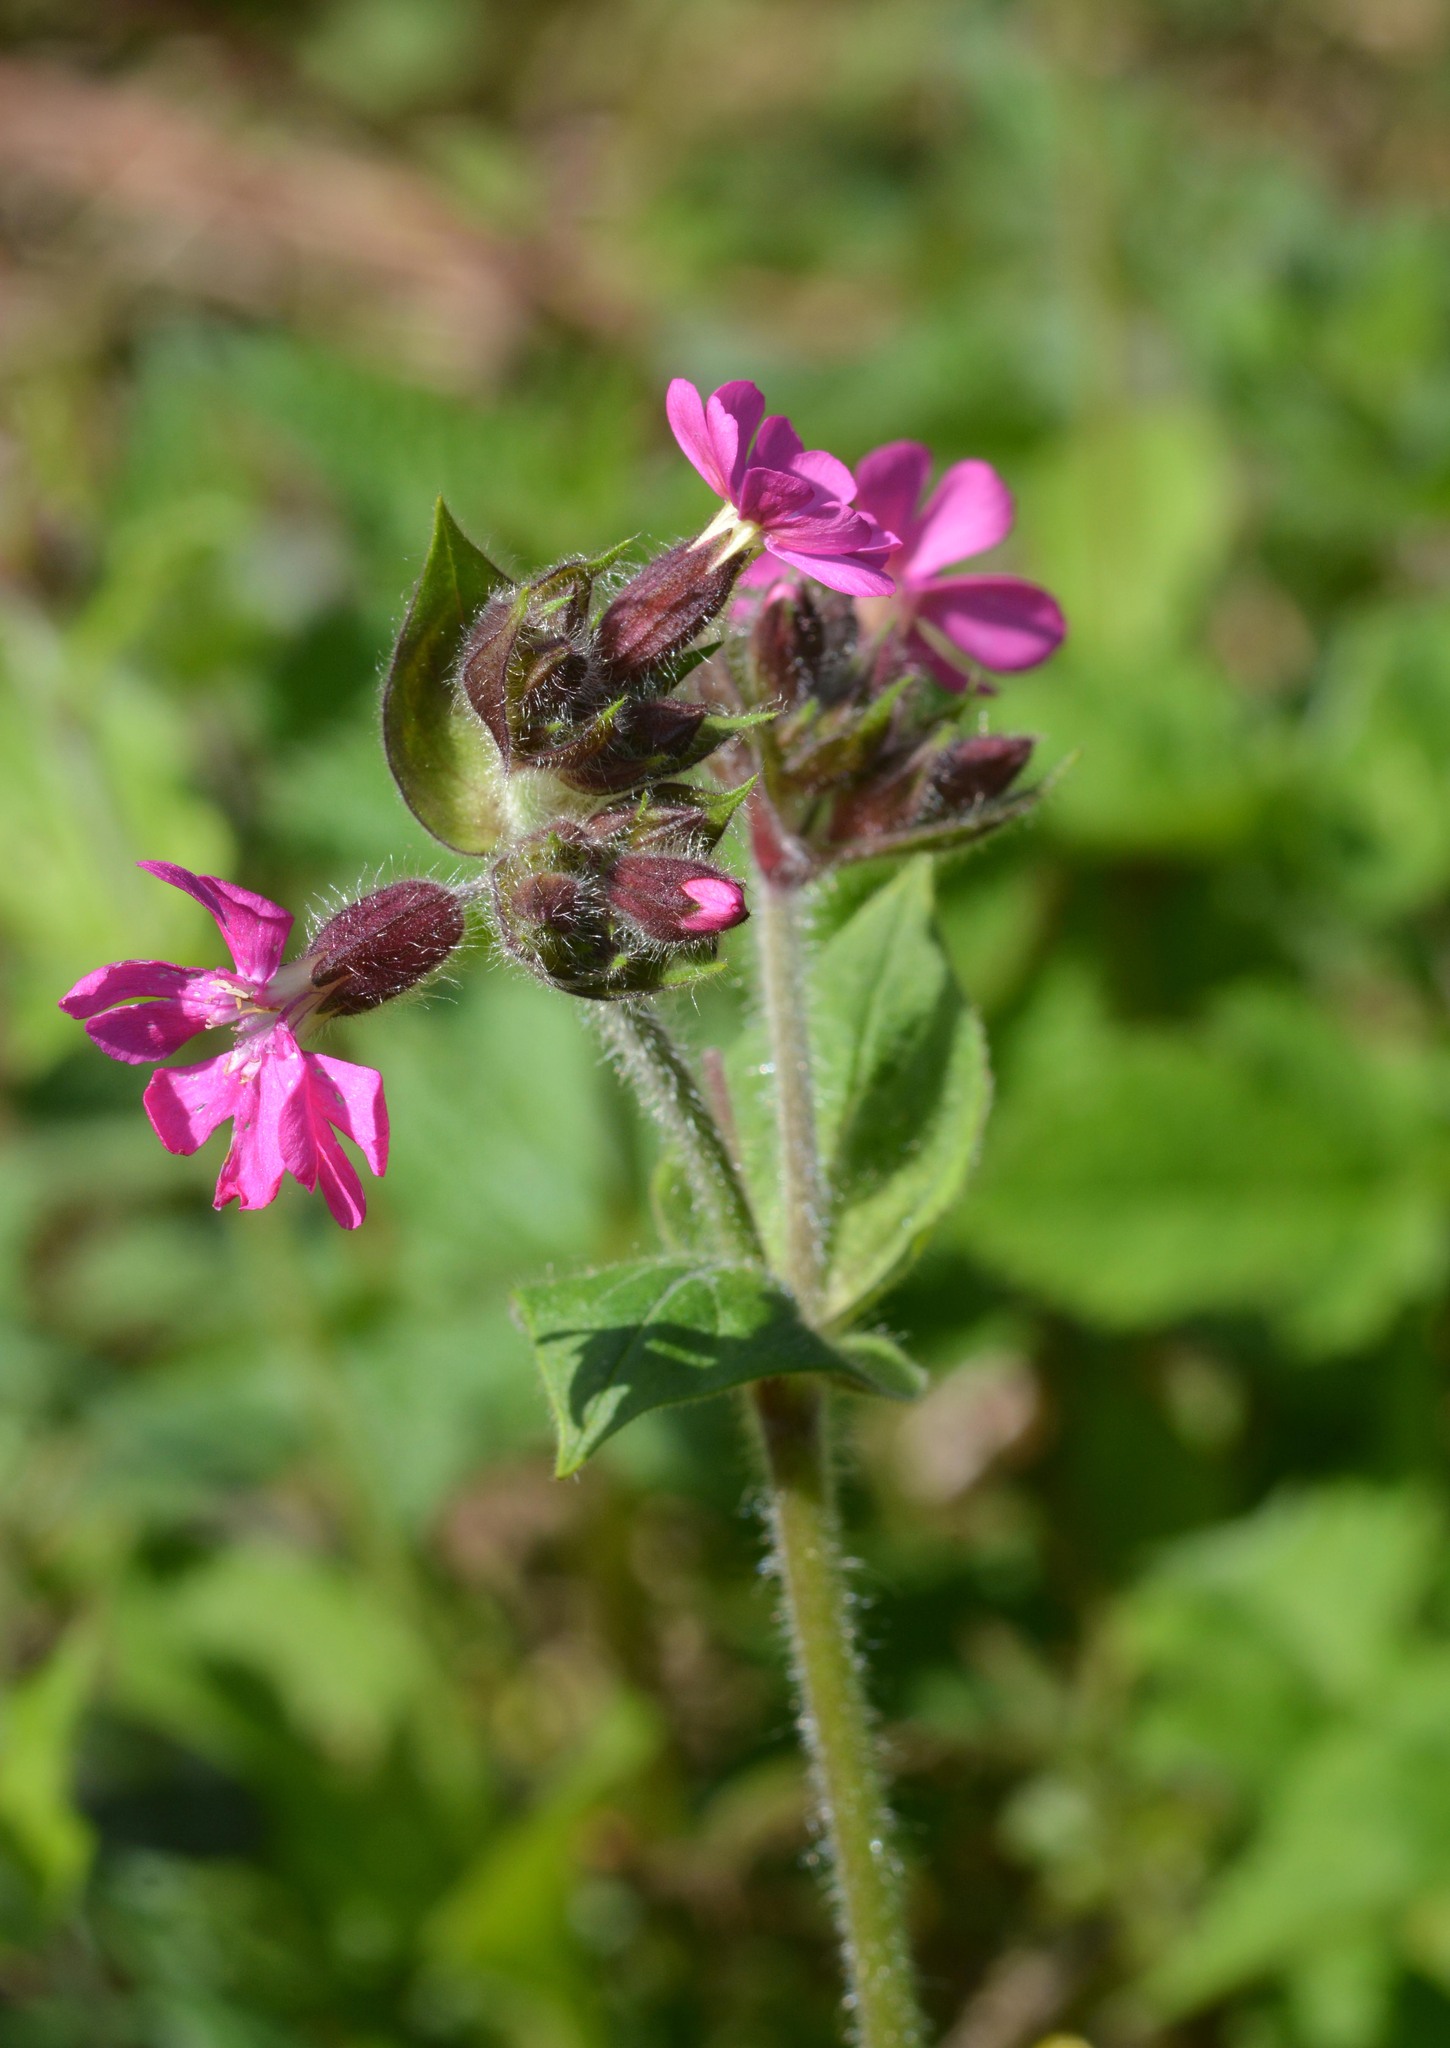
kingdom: Plantae
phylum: Tracheophyta
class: Magnoliopsida
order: Caryophyllales
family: Caryophyllaceae
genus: Silene
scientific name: Silene dioica
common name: Red campion
